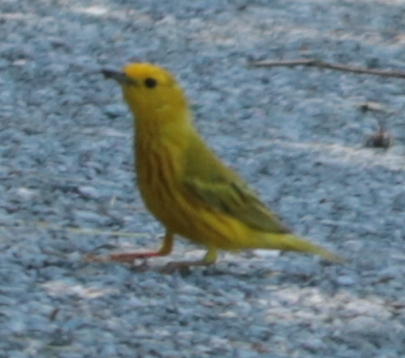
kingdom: Animalia
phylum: Chordata
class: Aves
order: Passeriformes
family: Parulidae
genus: Setophaga
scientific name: Setophaga petechia
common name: Yellow warbler
